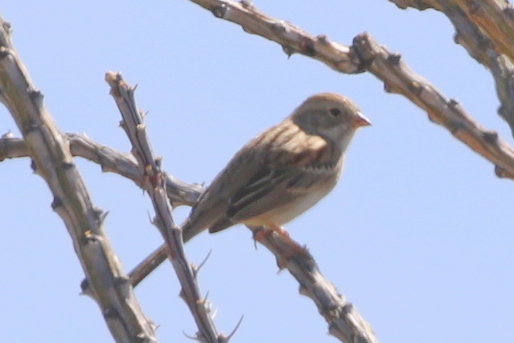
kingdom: Animalia
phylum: Chordata
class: Aves
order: Passeriformes
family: Passerellidae
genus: Spizella
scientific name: Spizella breweri
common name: Brewer's sparrow
